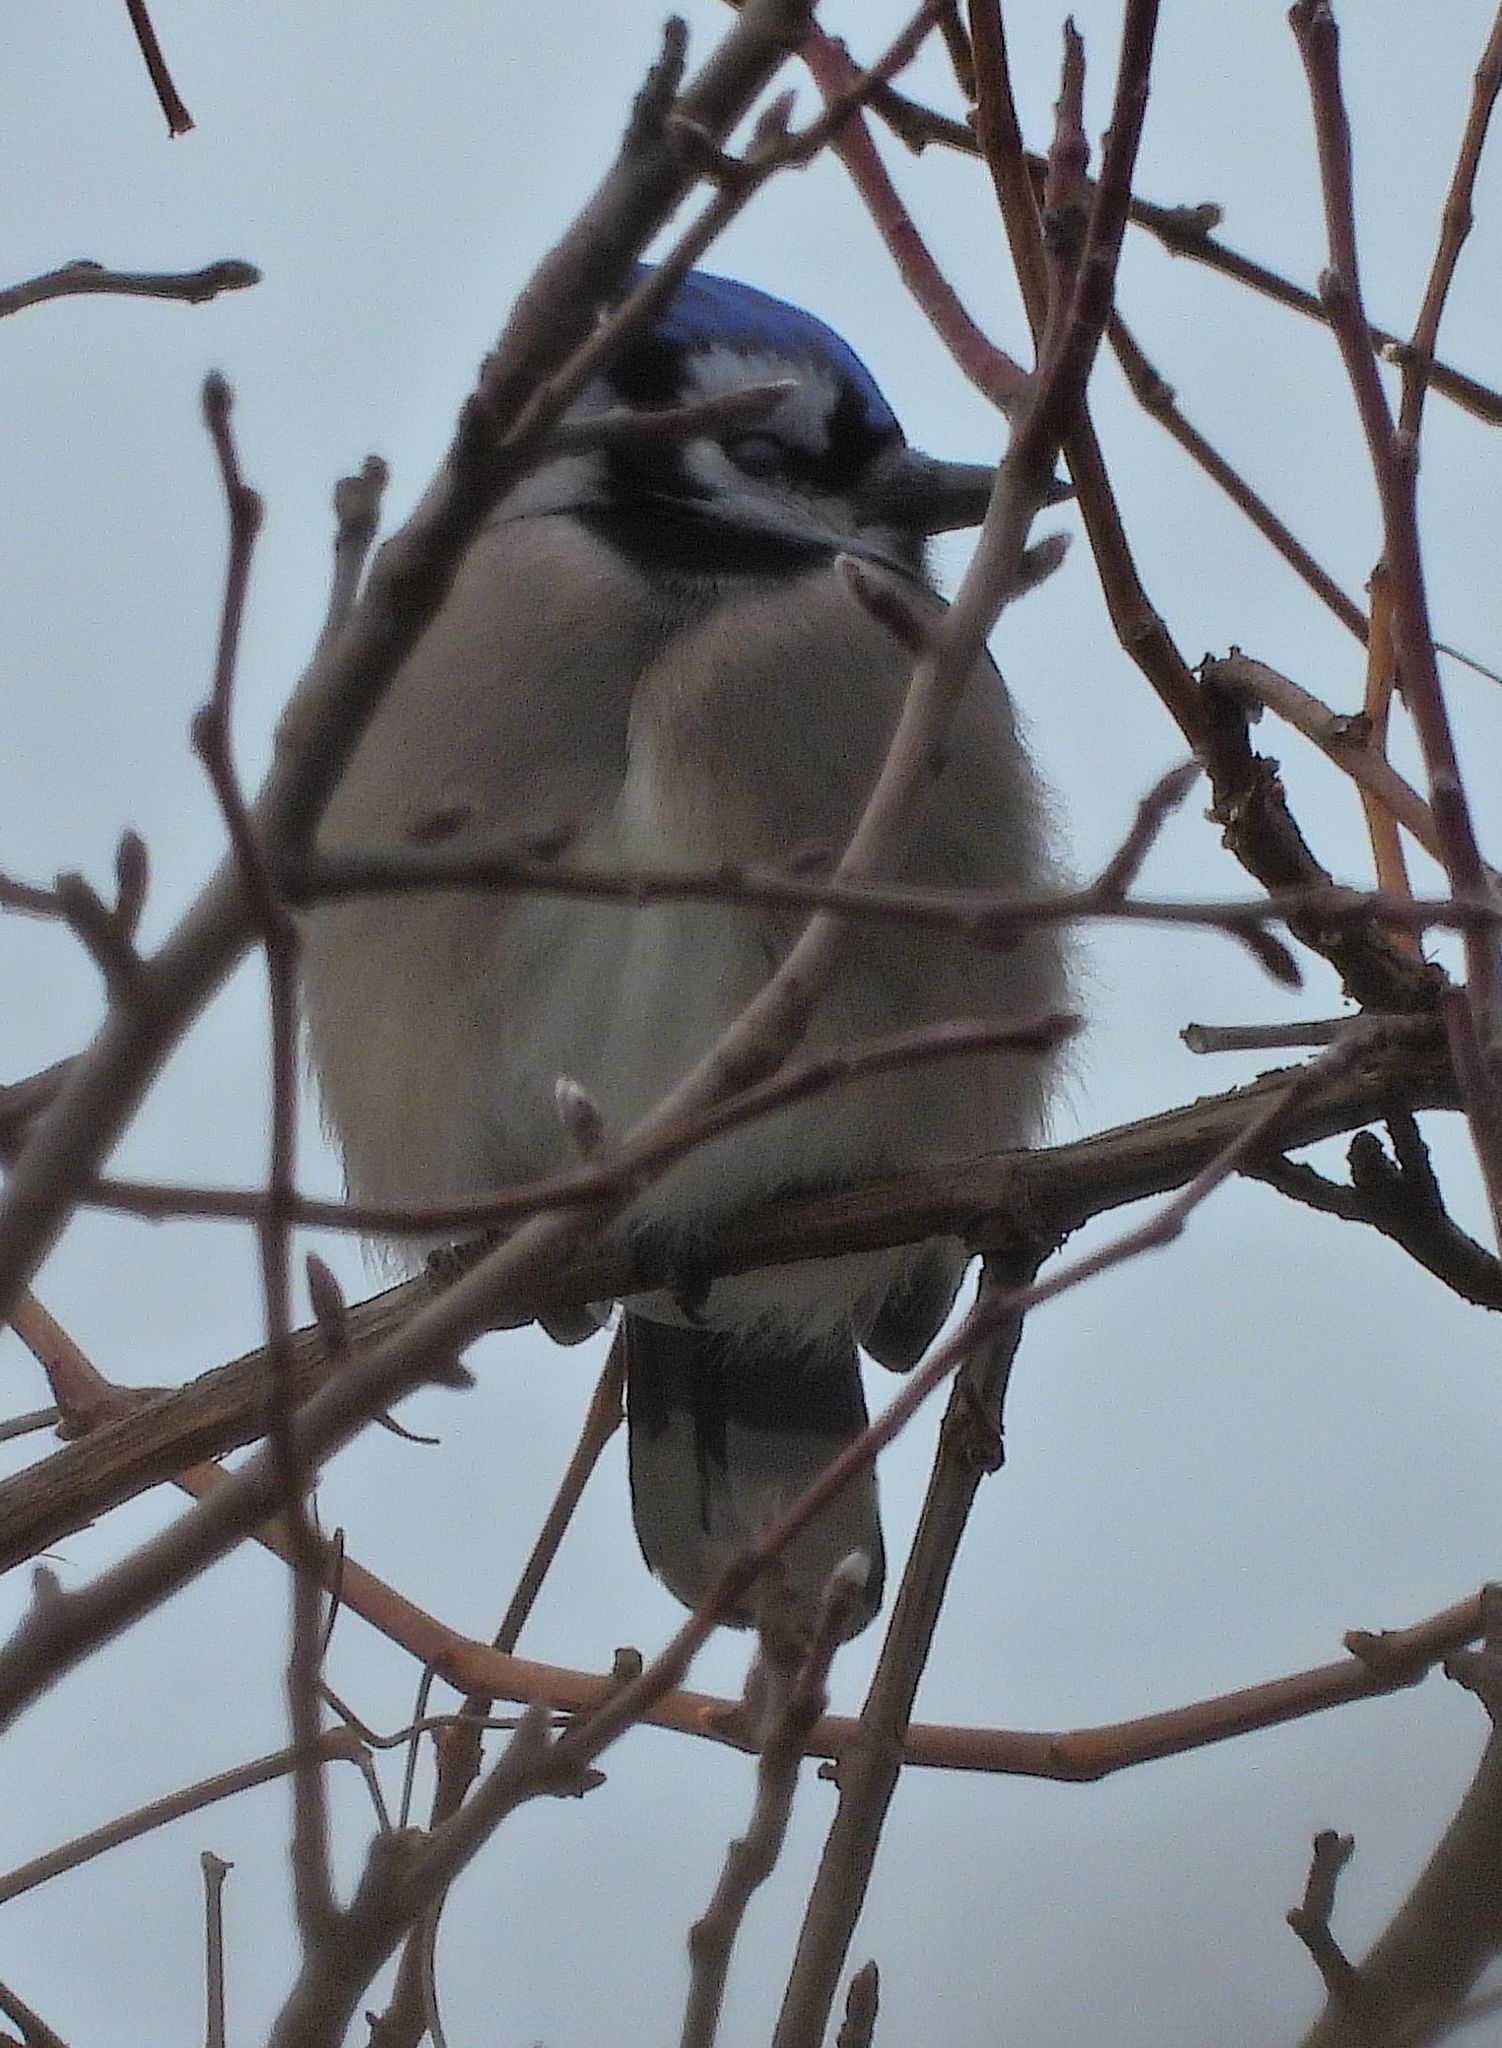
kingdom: Animalia
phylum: Chordata
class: Aves
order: Passeriformes
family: Corvidae
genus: Cyanocitta
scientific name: Cyanocitta cristata
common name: Blue jay
